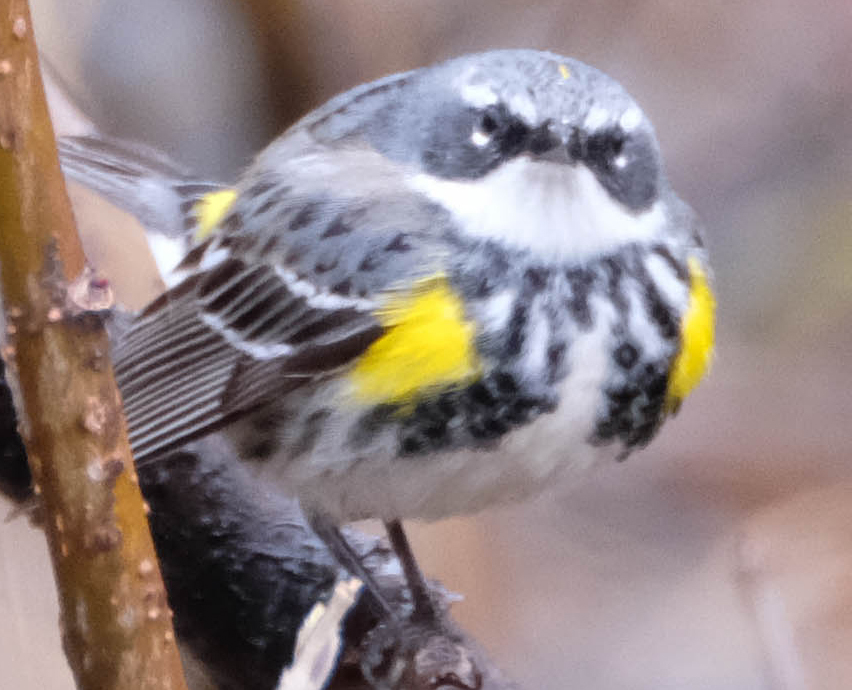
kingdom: Animalia
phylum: Chordata
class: Aves
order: Passeriformes
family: Parulidae
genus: Setophaga
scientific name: Setophaga coronata
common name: Myrtle warbler
